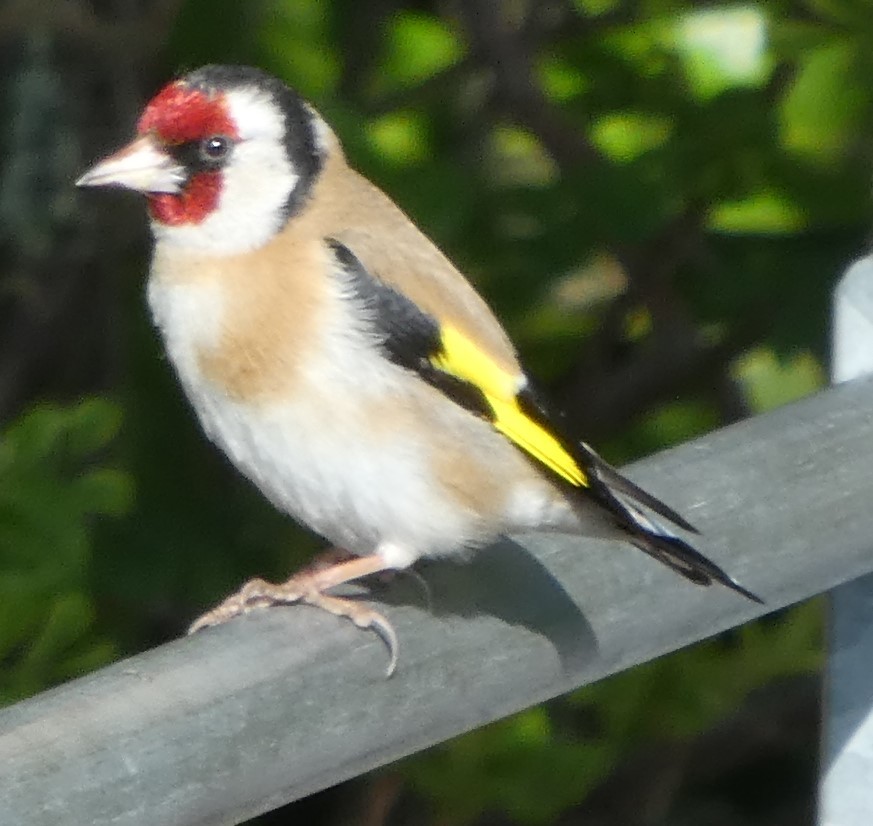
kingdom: Animalia
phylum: Chordata
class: Aves
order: Passeriformes
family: Fringillidae
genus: Carduelis
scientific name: Carduelis carduelis
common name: European goldfinch
